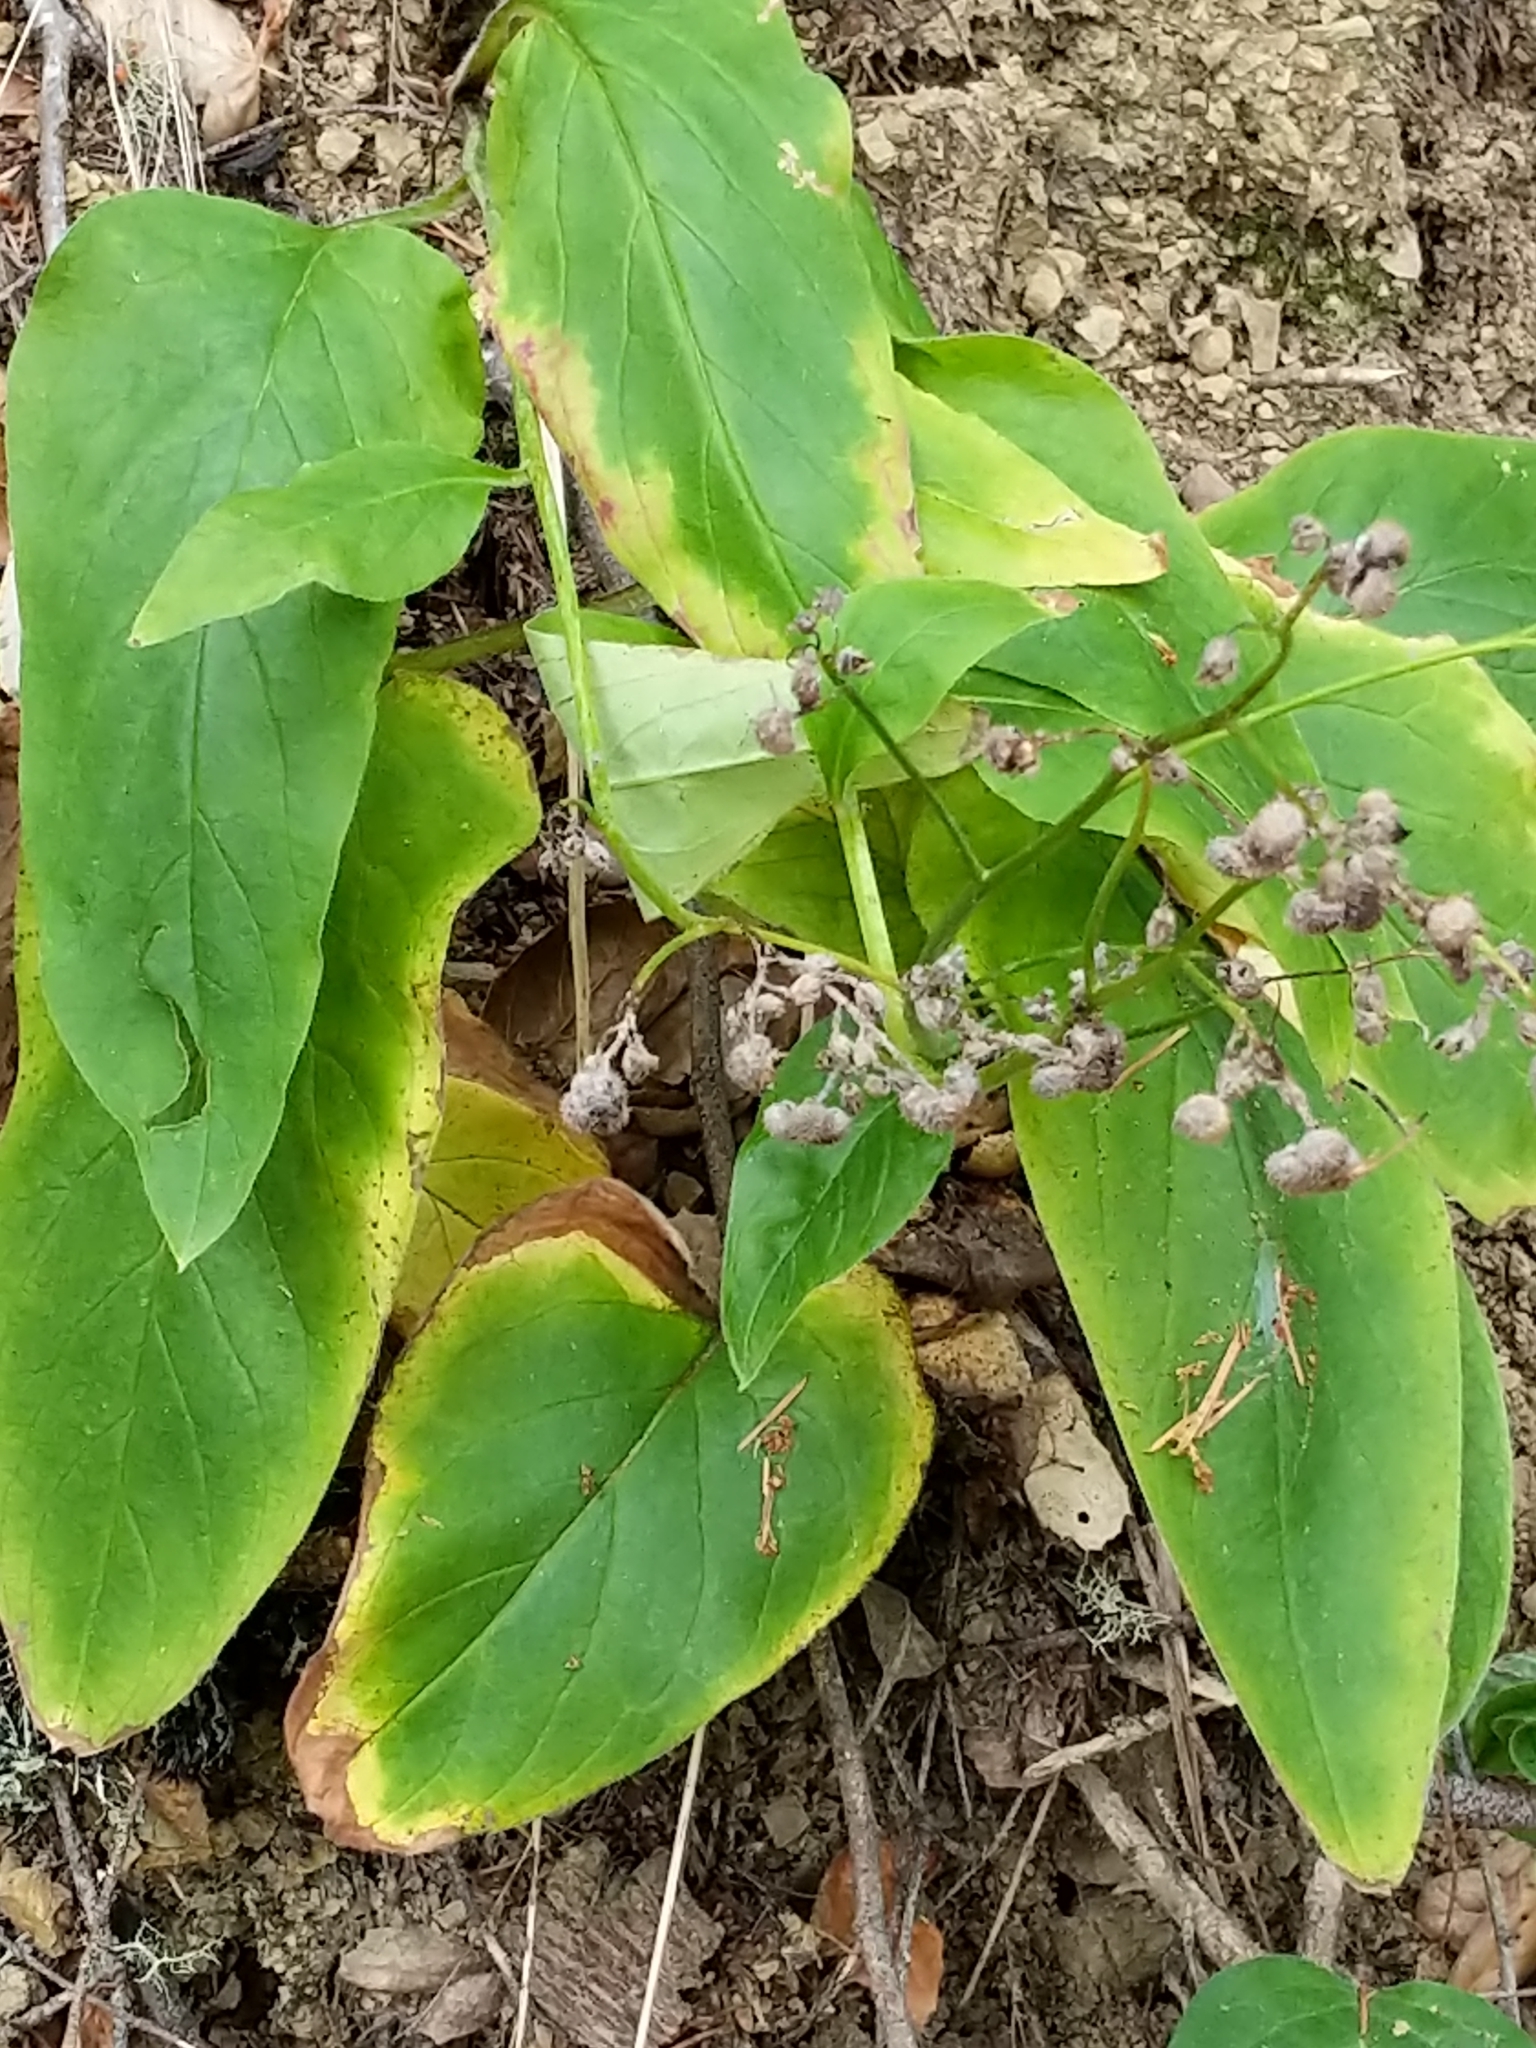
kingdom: Plantae
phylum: Tracheophyta
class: Magnoliopsida
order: Boraginales
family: Boraginaceae
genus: Adelinia
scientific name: Adelinia grande
